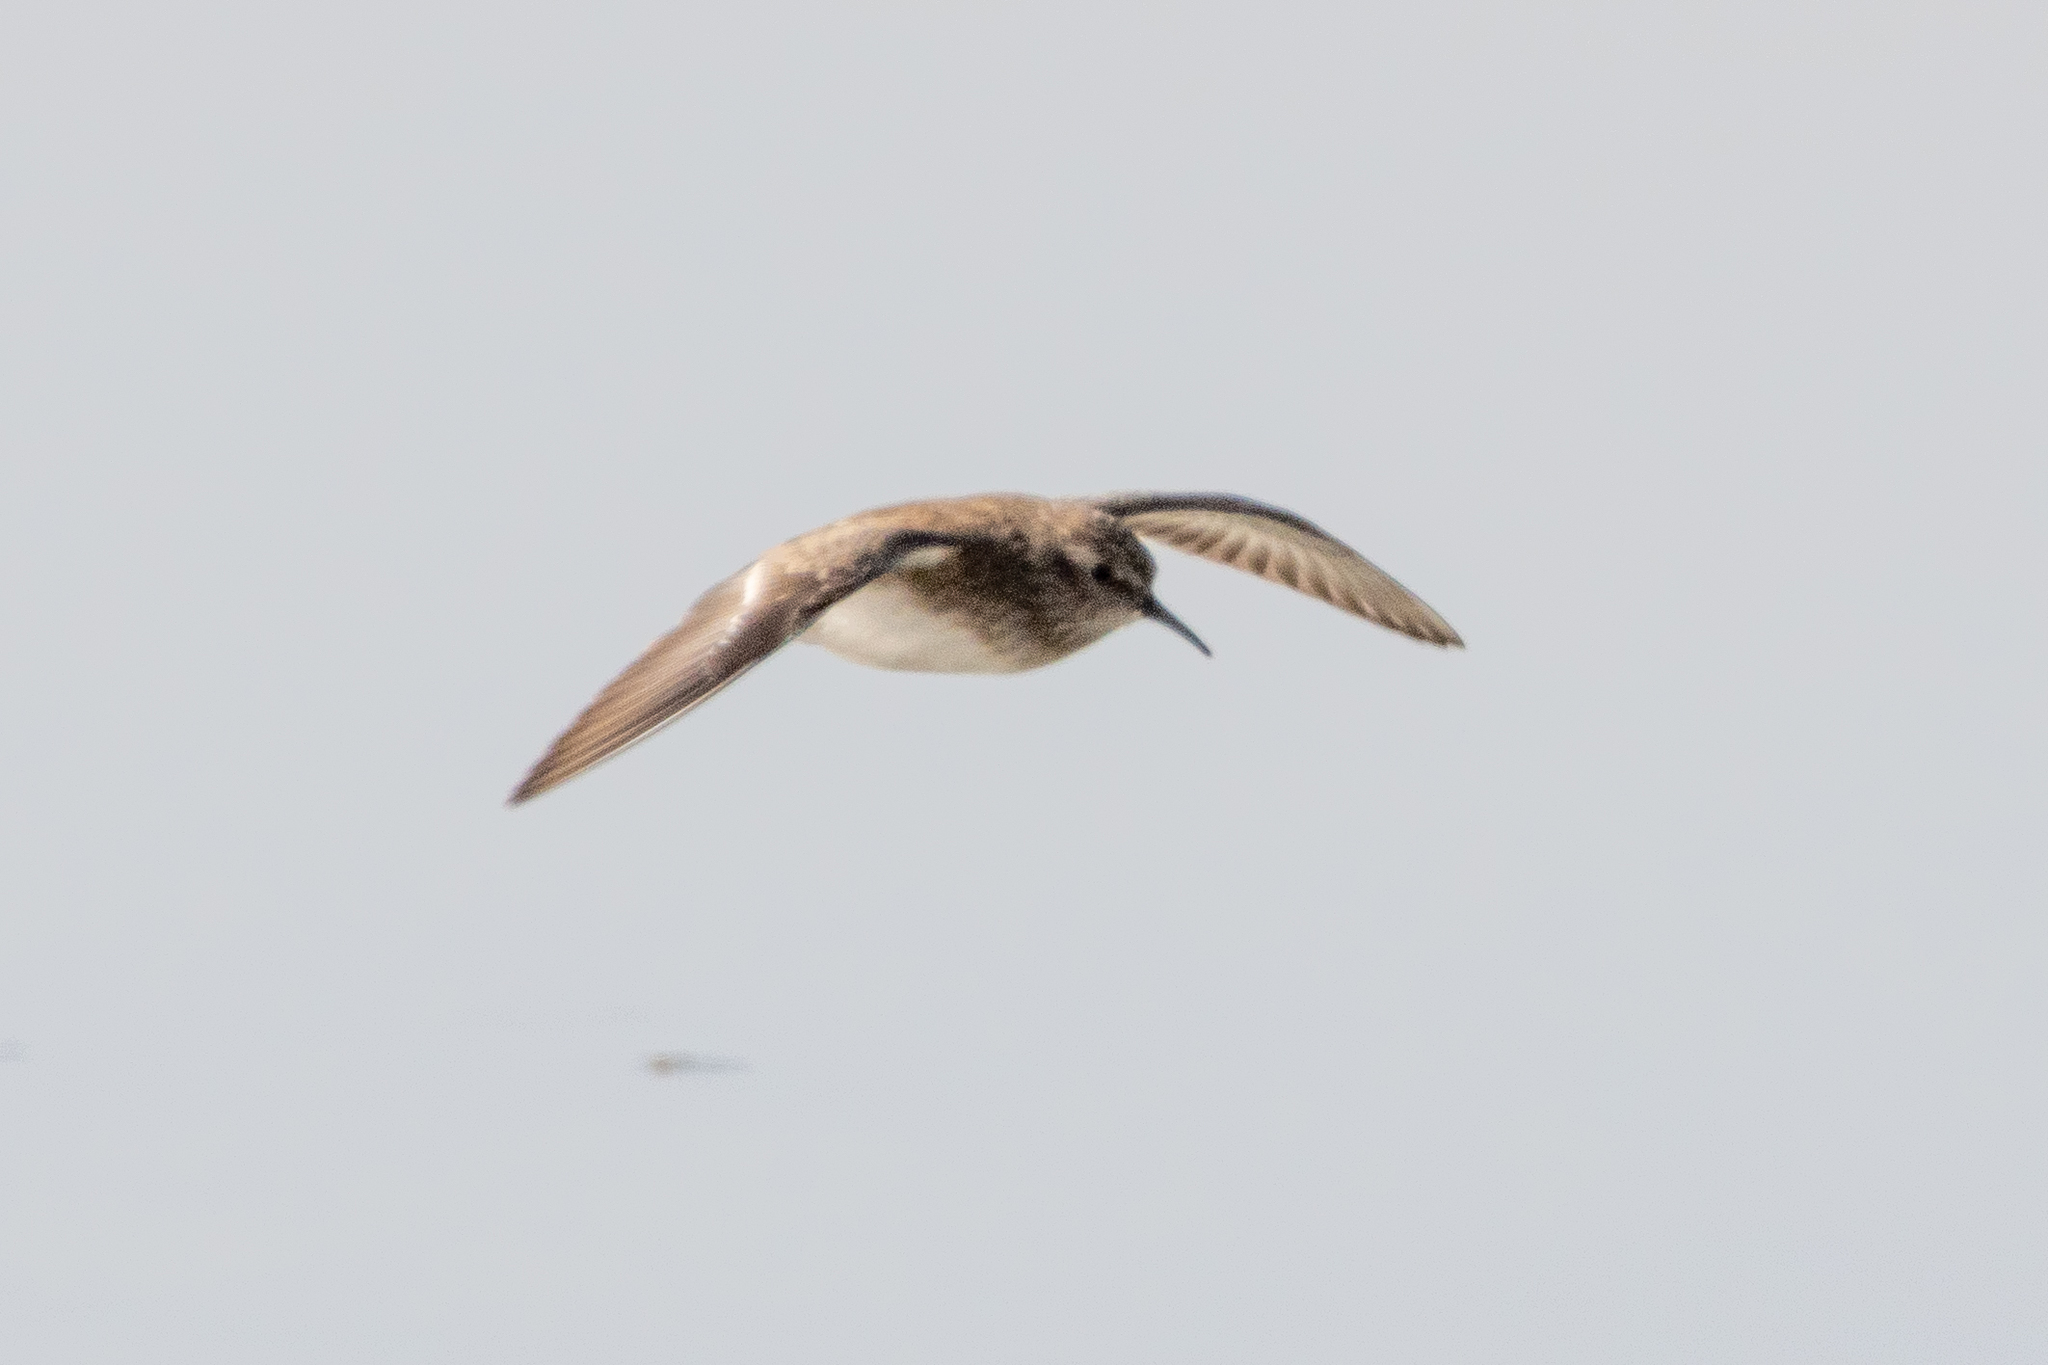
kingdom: Animalia
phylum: Chordata
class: Aves
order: Charadriiformes
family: Scolopacidae
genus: Calidris
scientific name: Calidris minutilla
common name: Least sandpiper
